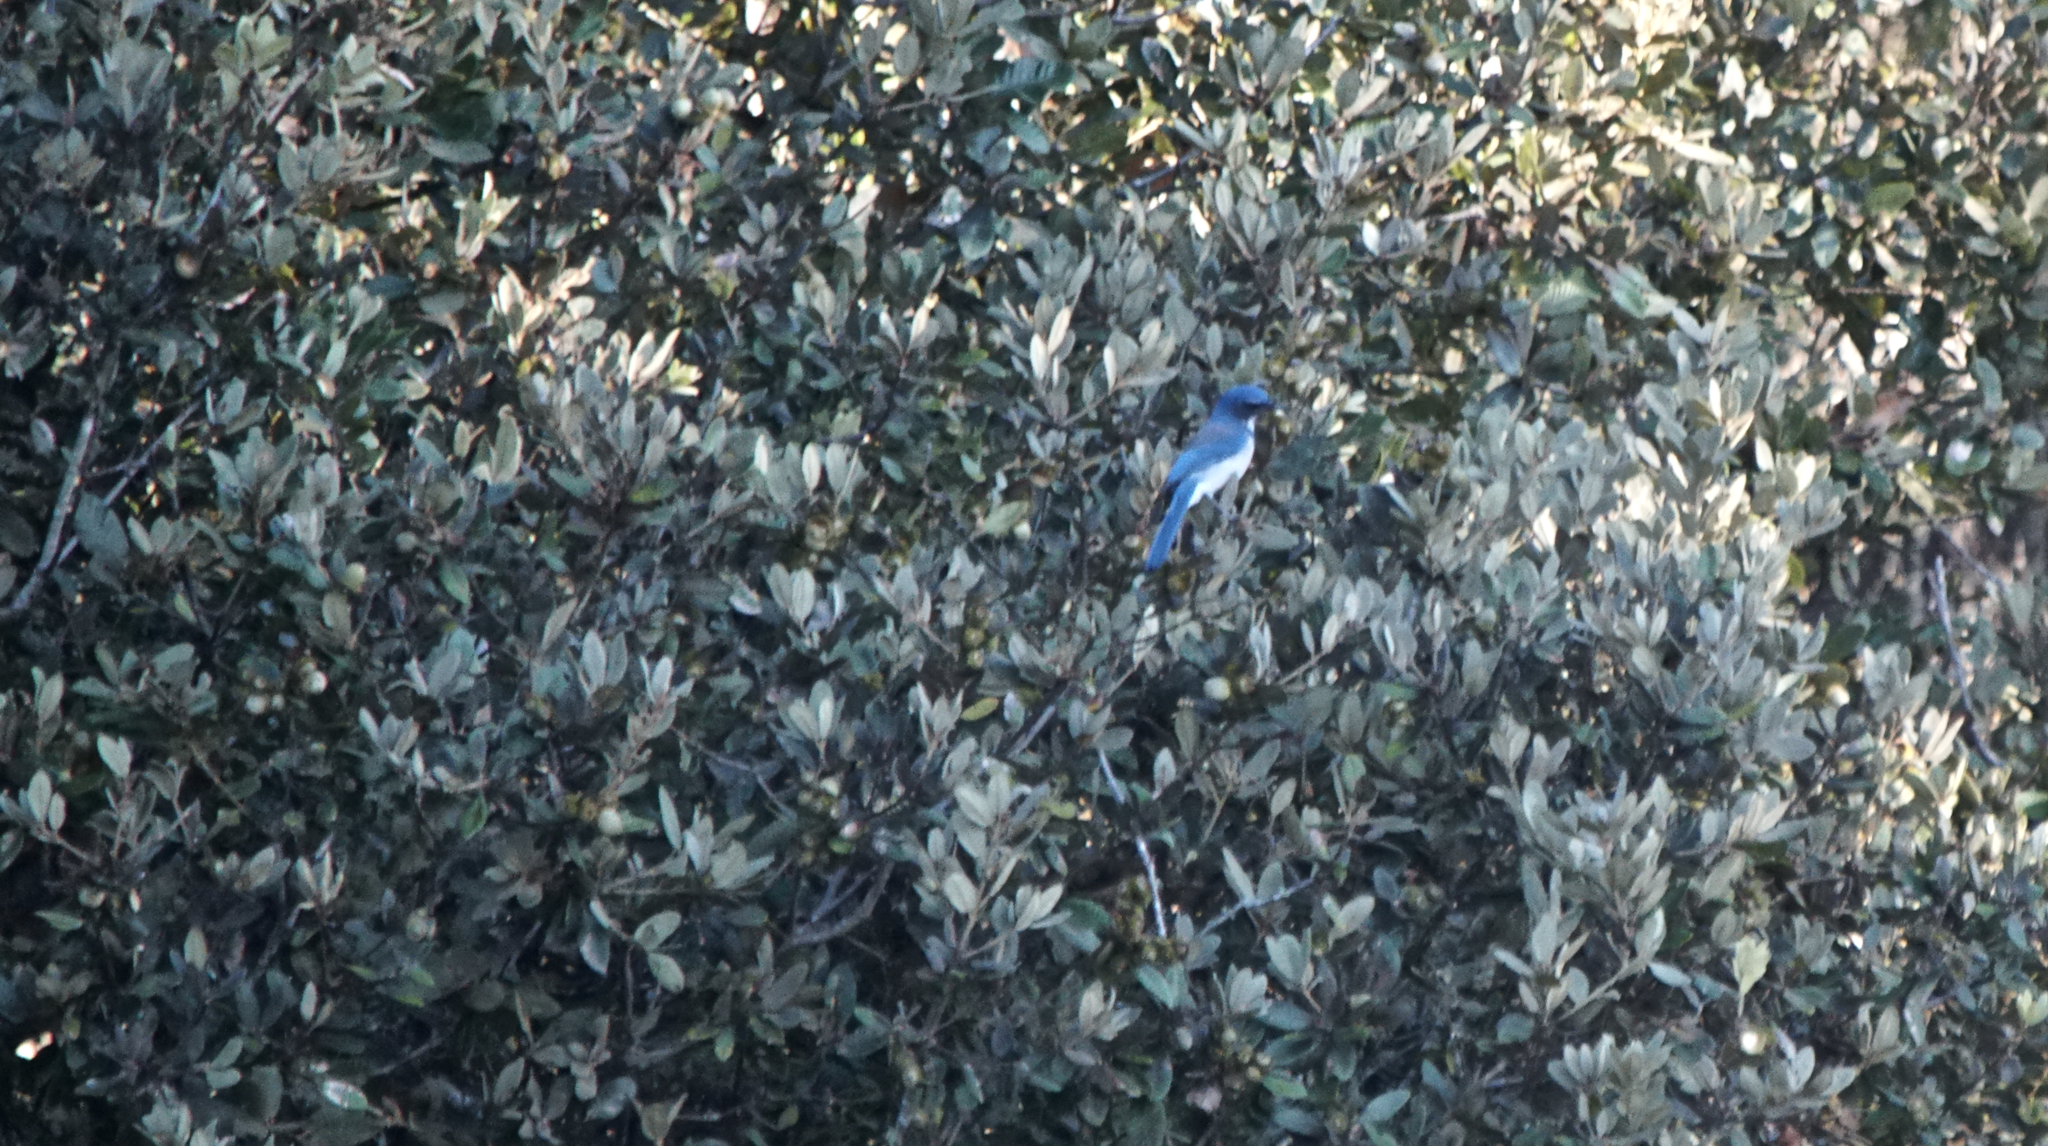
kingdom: Animalia
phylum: Chordata
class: Aves
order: Passeriformes
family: Corvidae
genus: Aphelocoma
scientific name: Aphelocoma californica
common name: California scrub-jay
